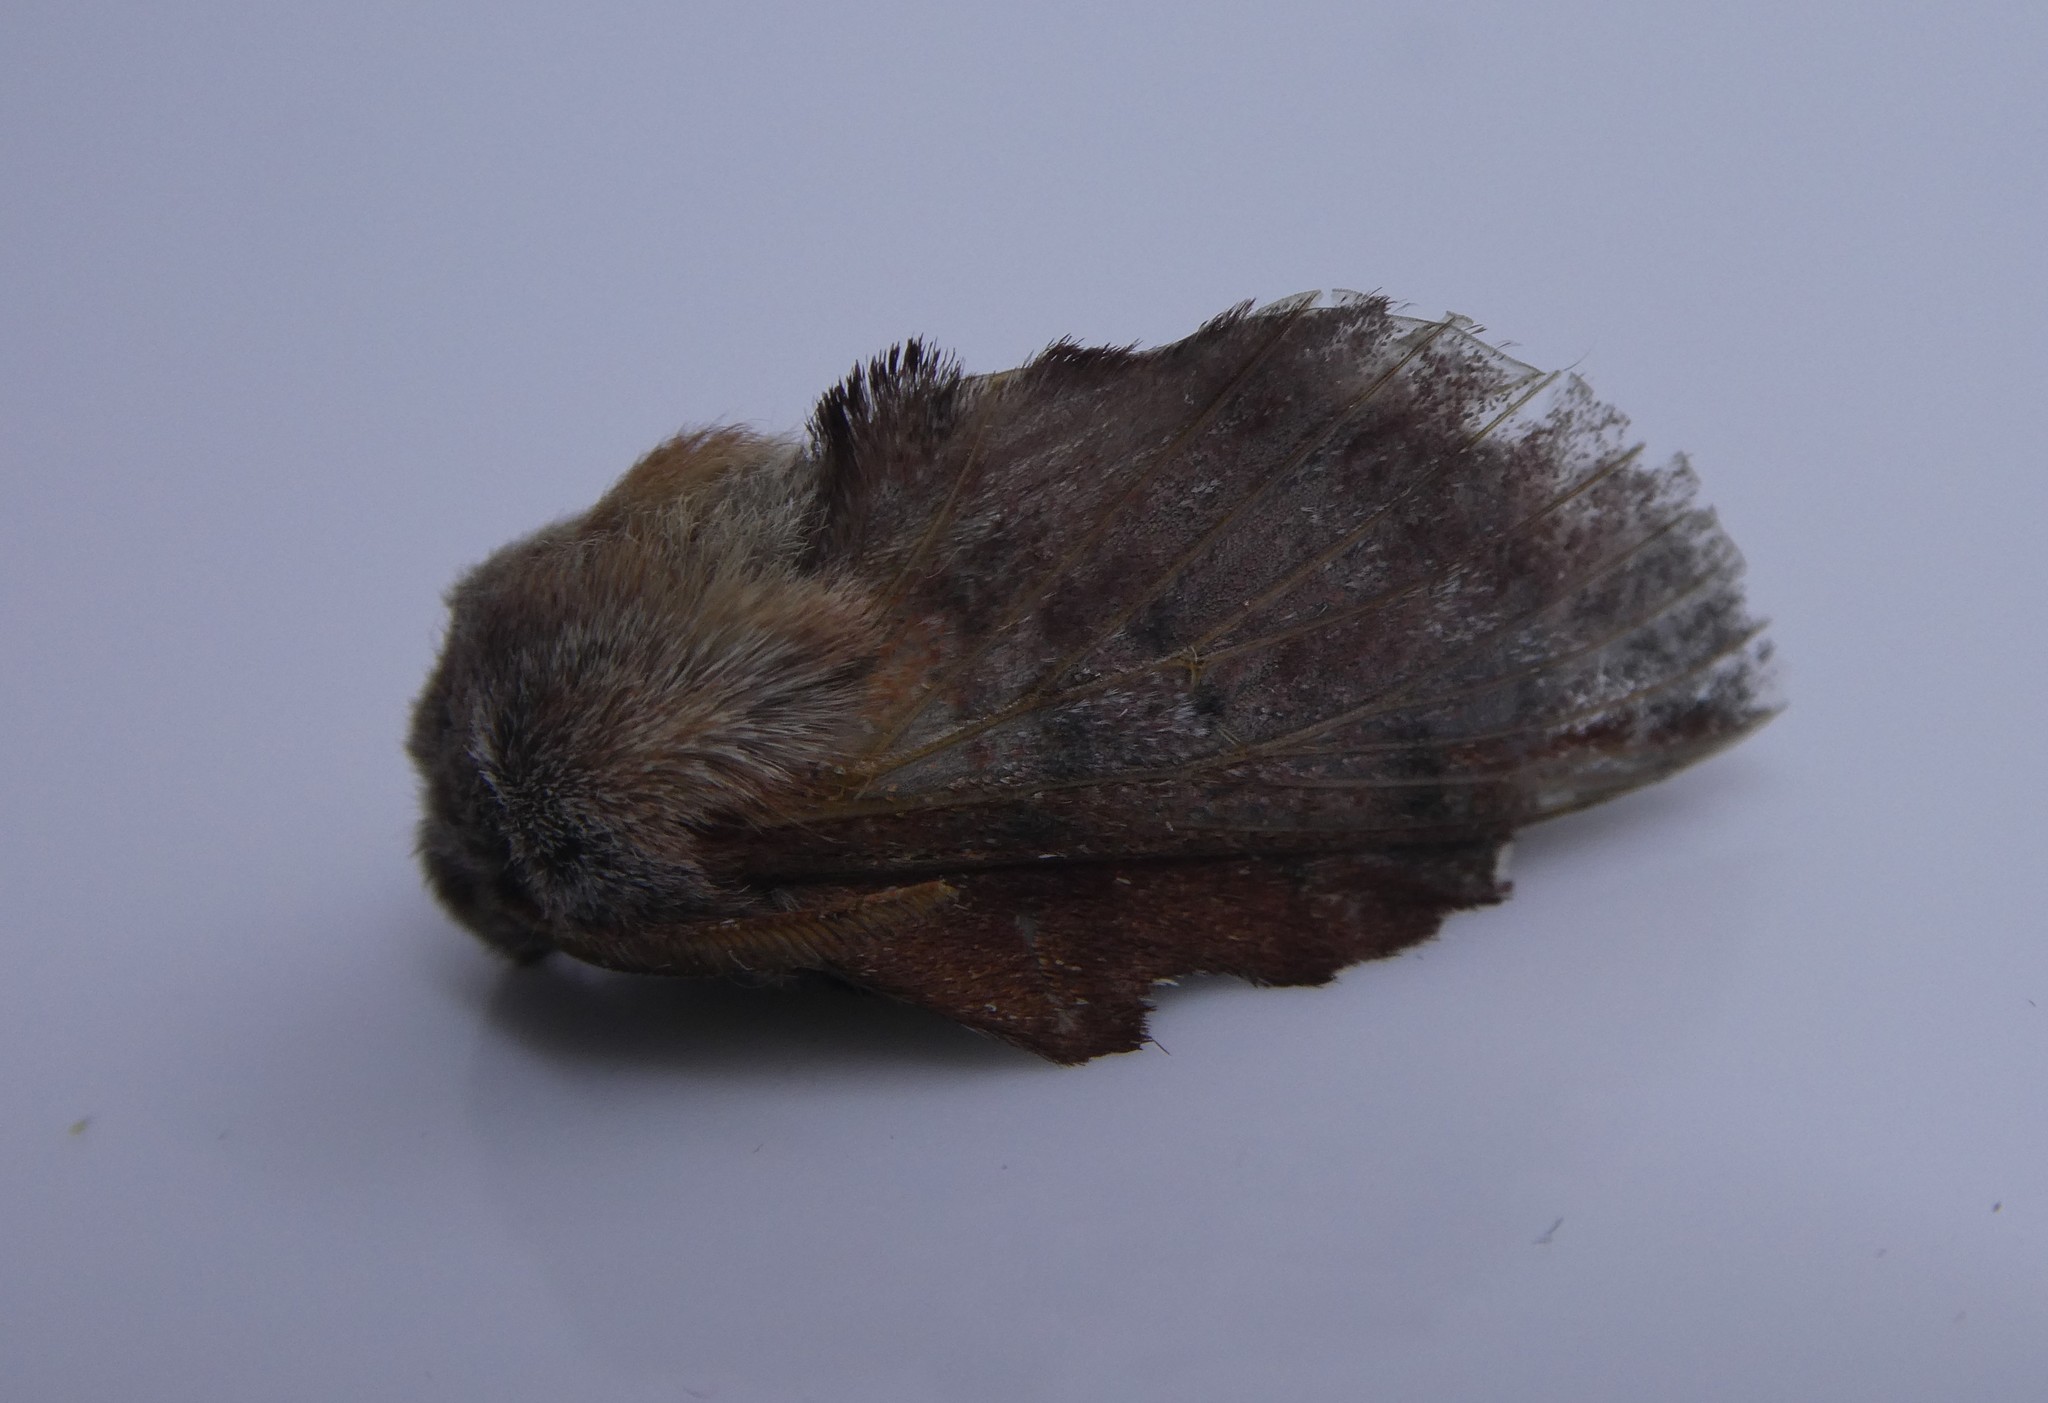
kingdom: Animalia
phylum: Arthropoda
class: Insecta
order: Lepidoptera
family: Lasiocampidae
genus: Phyllodesma
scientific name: Phyllodesma americana
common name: American lappet moth
